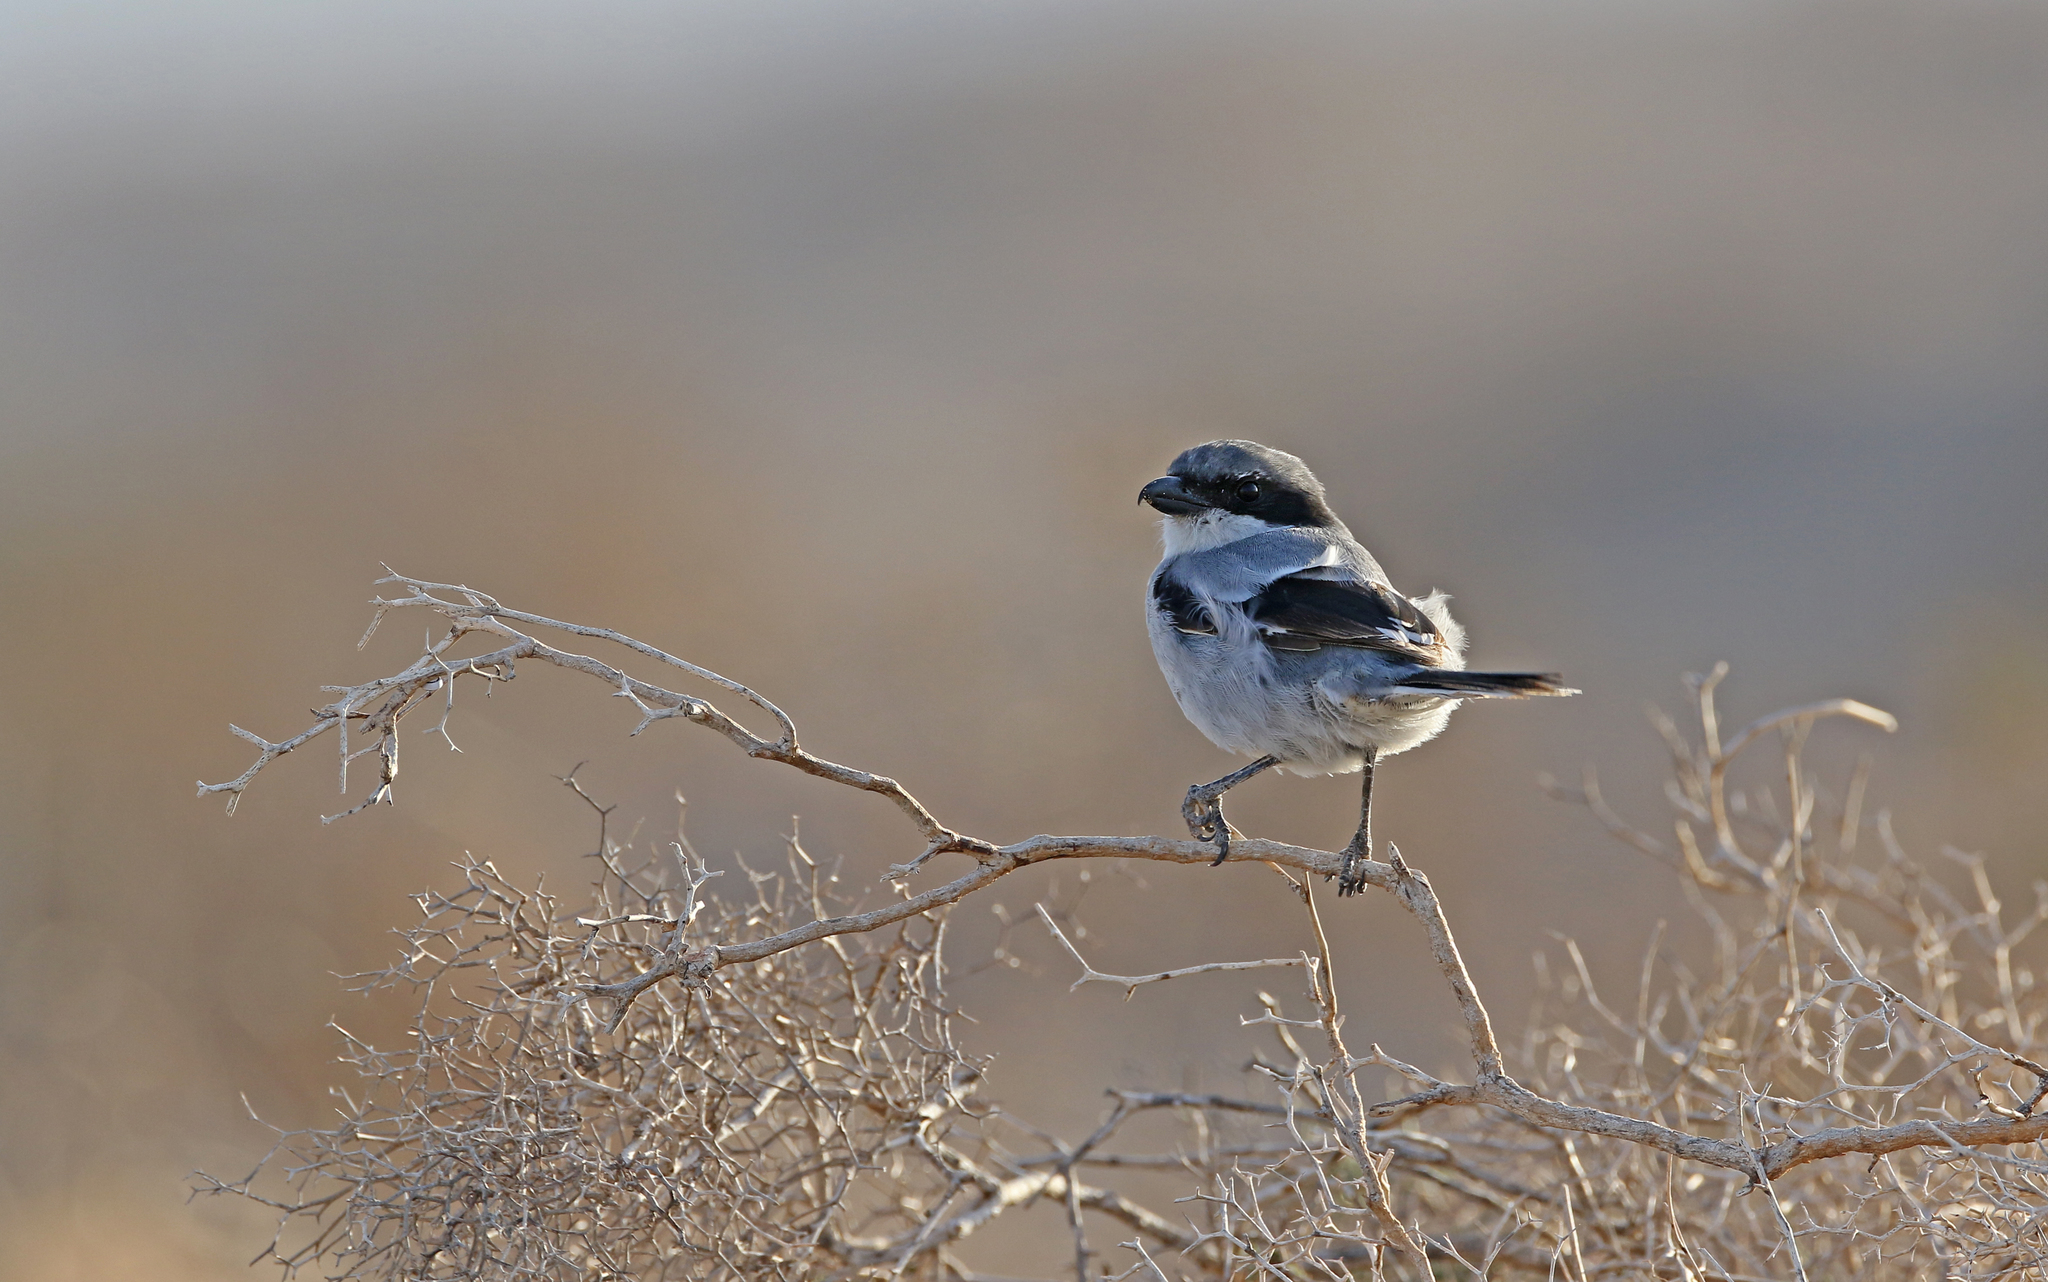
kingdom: Animalia
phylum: Chordata
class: Aves
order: Passeriformes
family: Laniidae
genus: Lanius
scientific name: Lanius excubitor
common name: Great grey shrike
